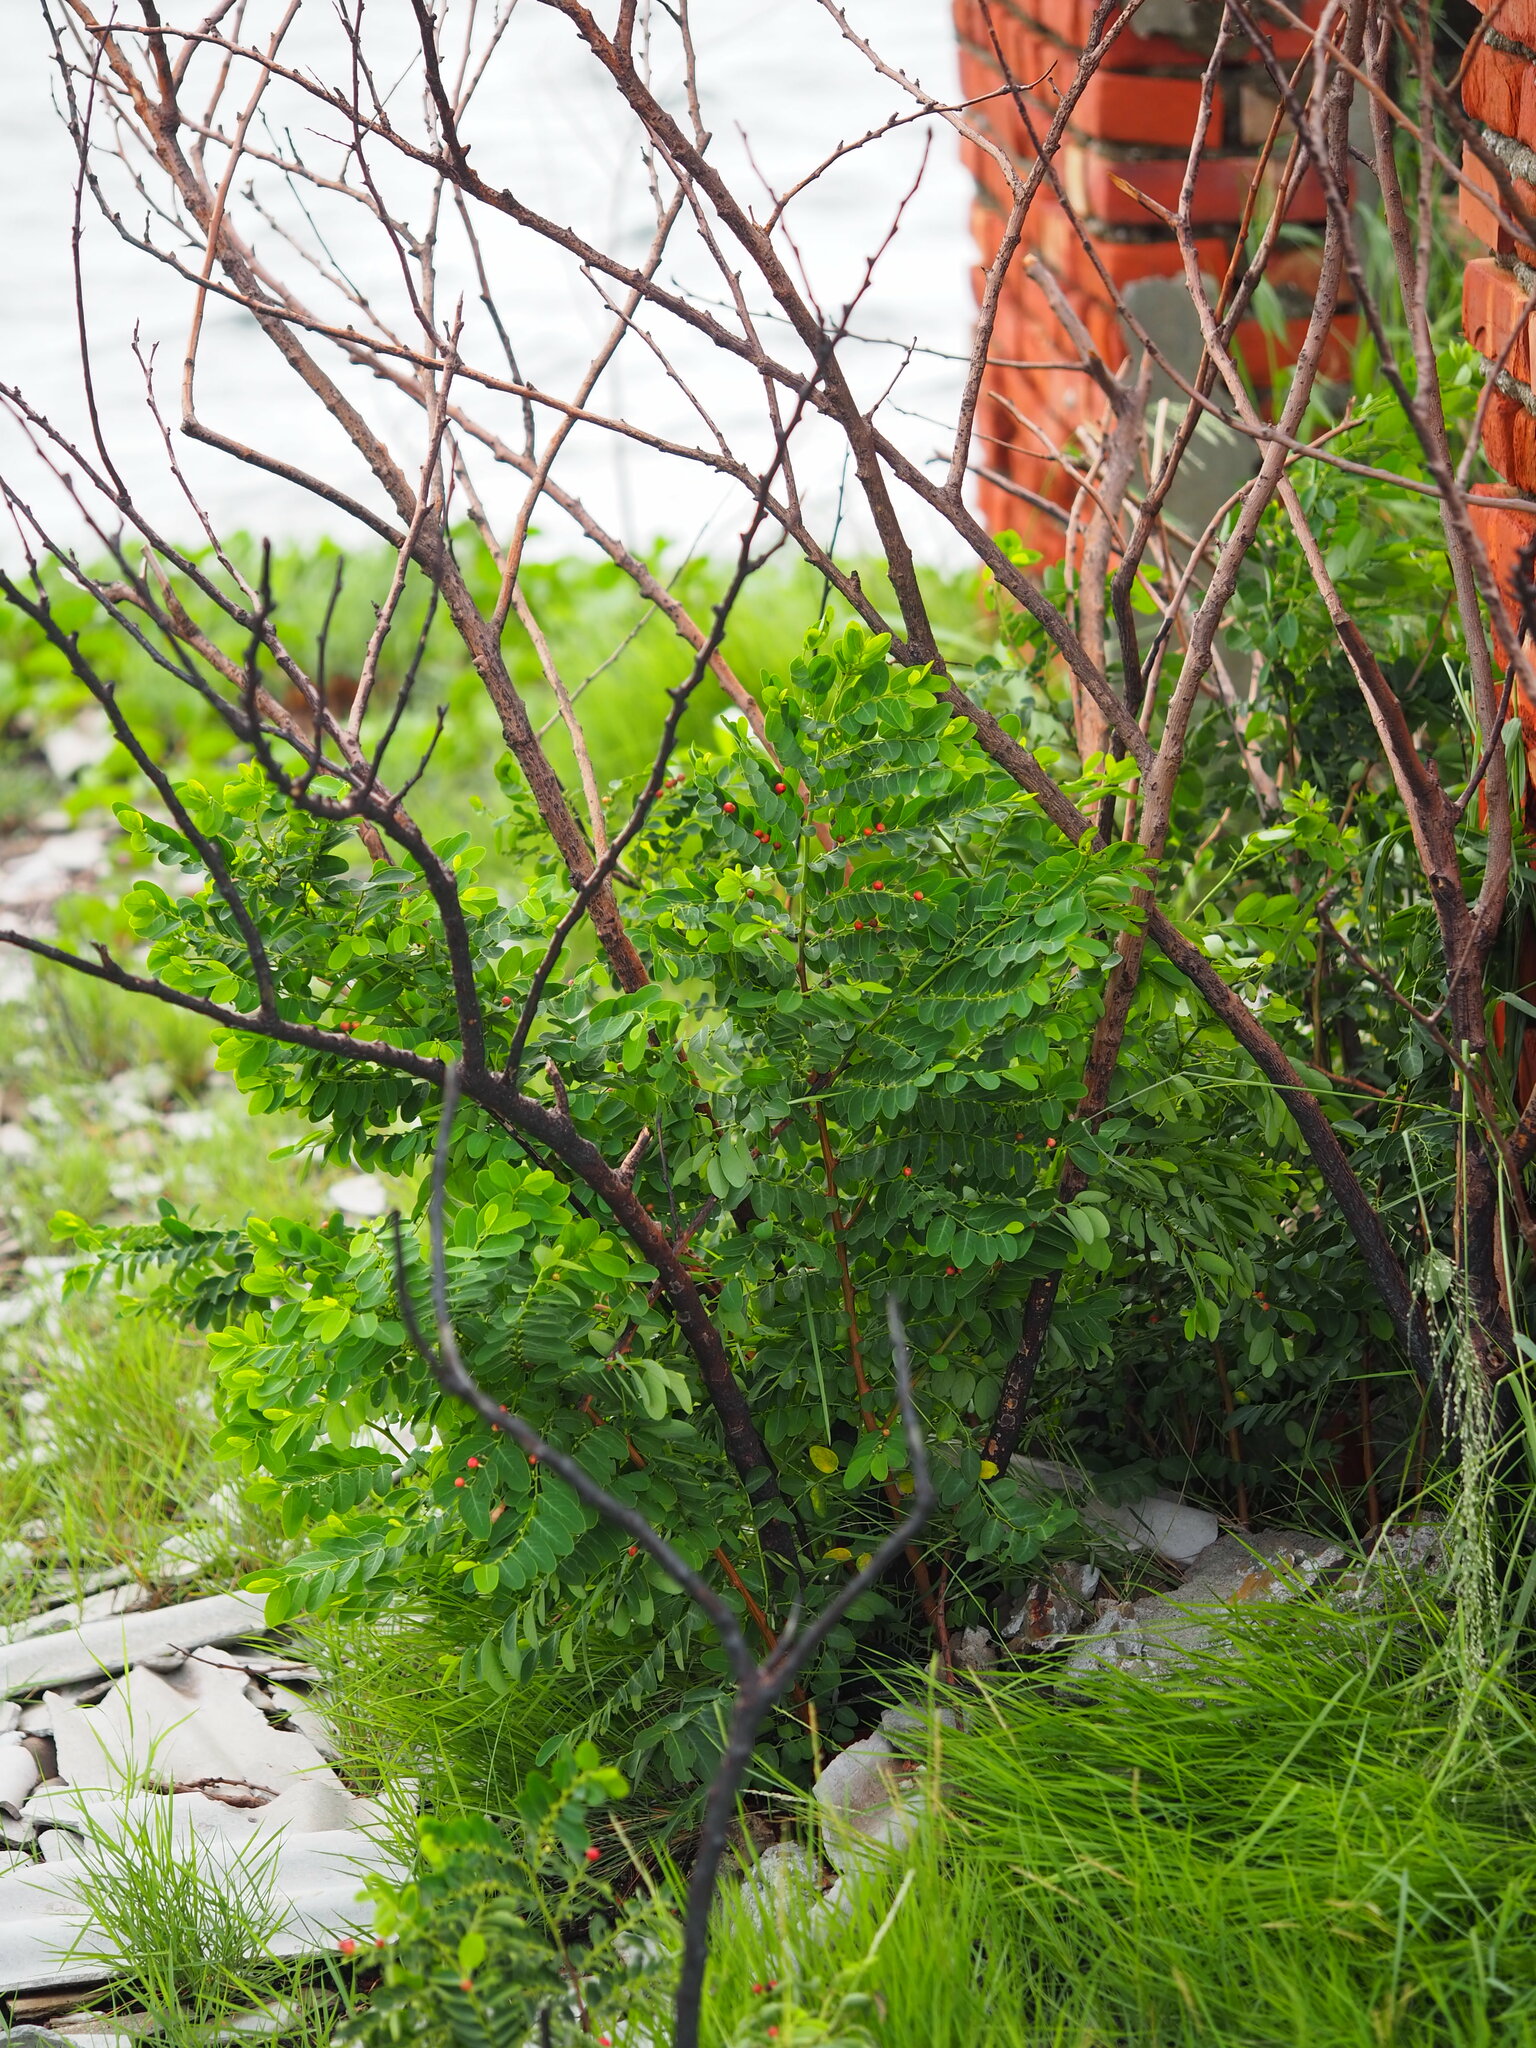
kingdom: Plantae
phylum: Tracheophyta
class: Magnoliopsida
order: Malpighiales
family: Phyllanthaceae
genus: Breynia
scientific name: Breynia vitis-idaea
